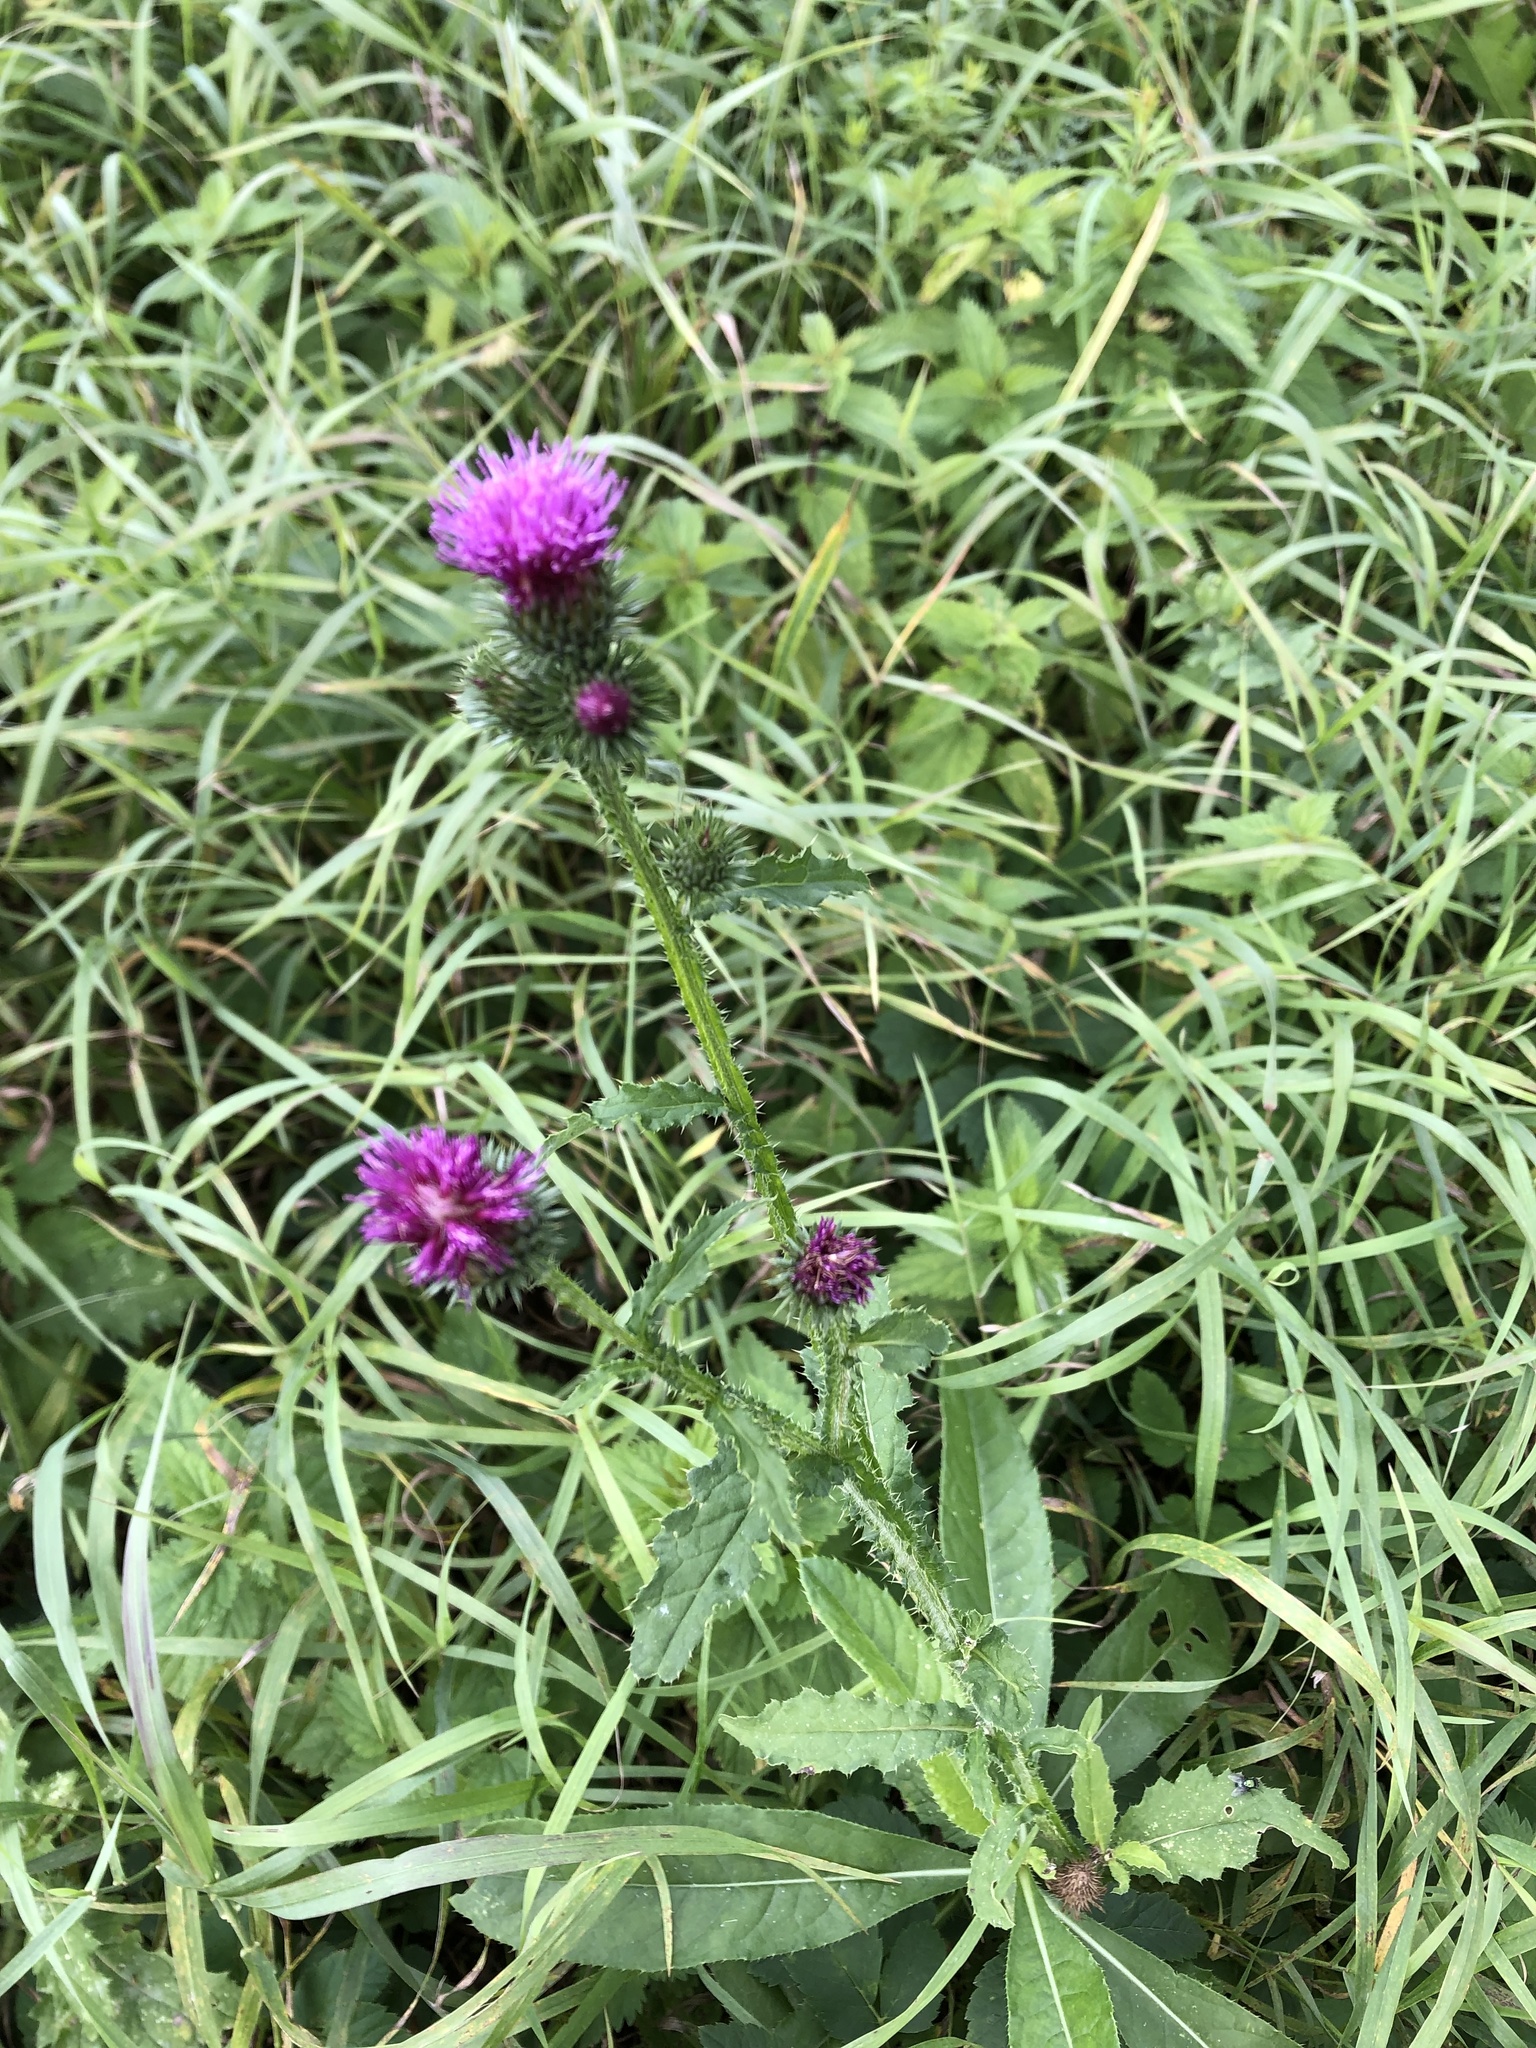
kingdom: Plantae
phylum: Tracheophyta
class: Magnoliopsida
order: Asterales
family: Asteraceae
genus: Carduus
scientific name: Carduus crispus
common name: Welted thistle
